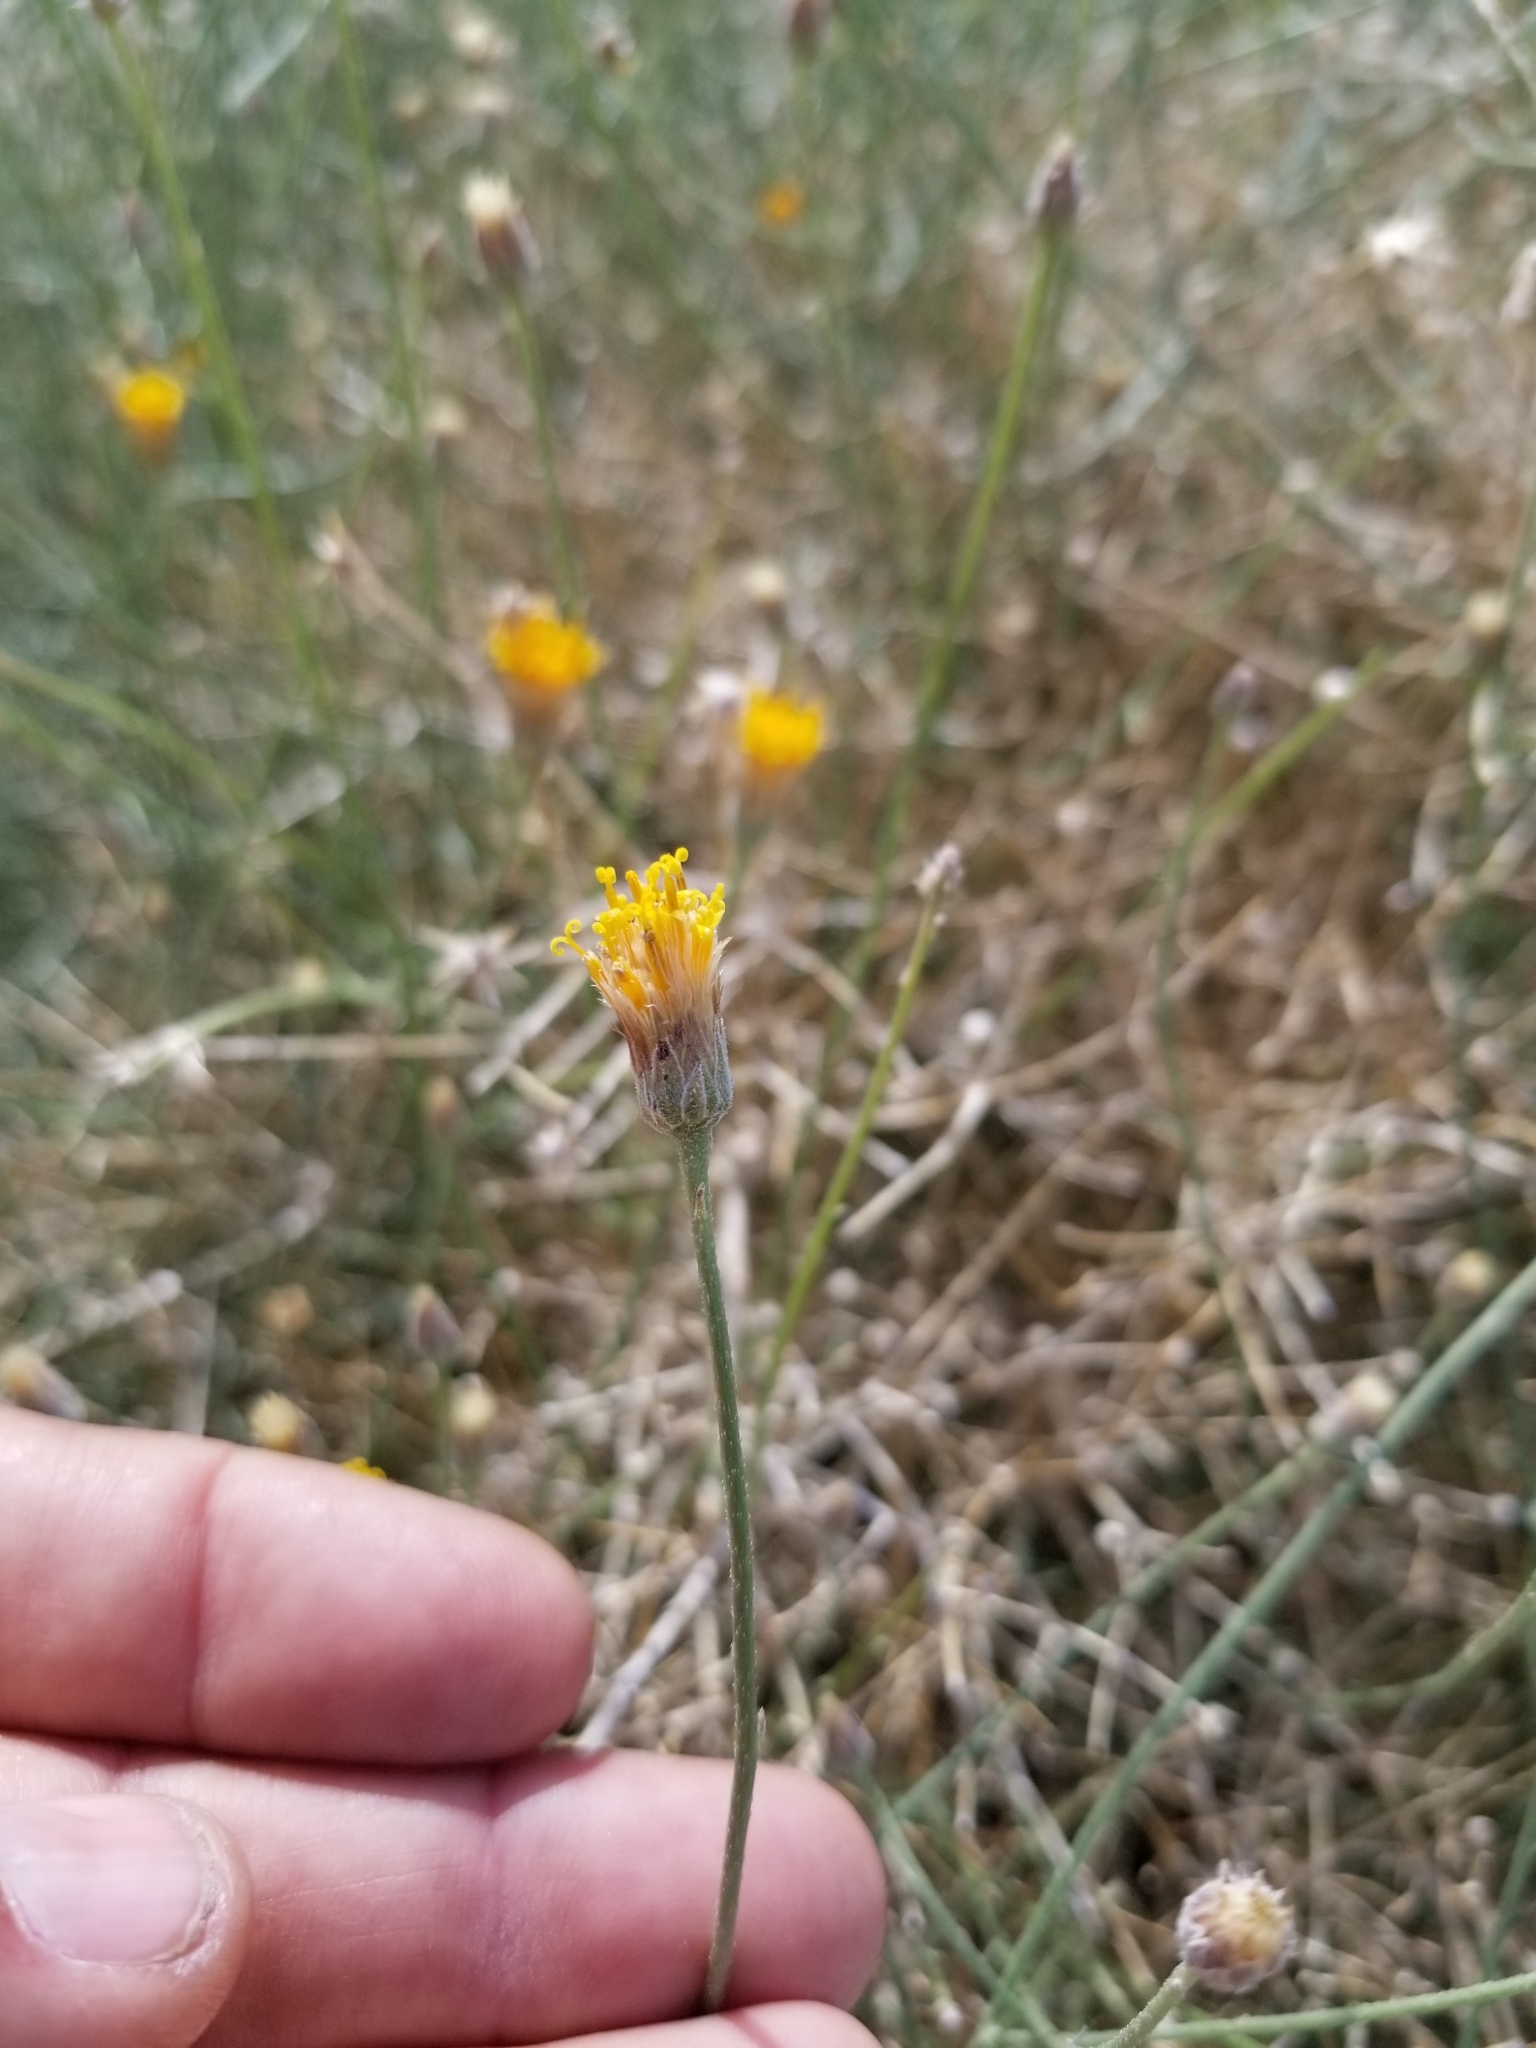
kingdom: Plantae
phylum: Tracheophyta
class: Magnoliopsida
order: Asterales
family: Asteraceae
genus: Bebbia
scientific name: Bebbia juncea
